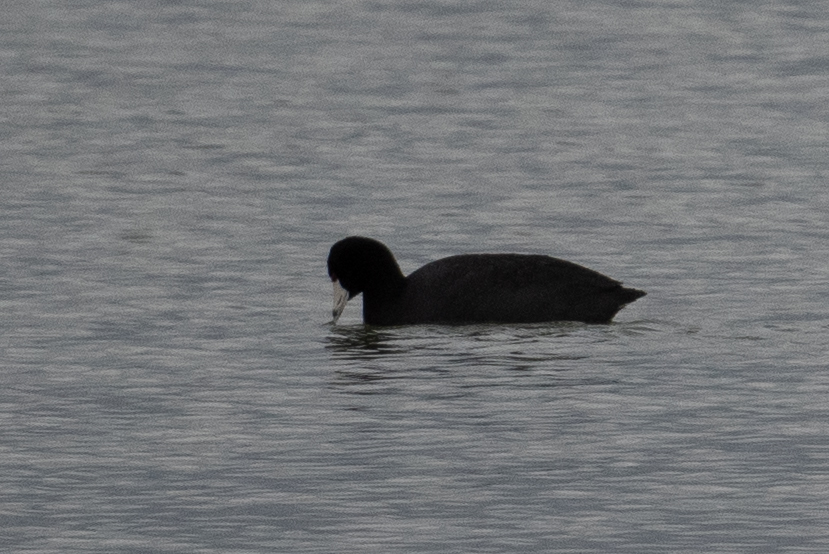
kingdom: Animalia
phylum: Chordata
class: Aves
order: Gruiformes
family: Rallidae
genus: Fulica
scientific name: Fulica americana
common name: American coot
